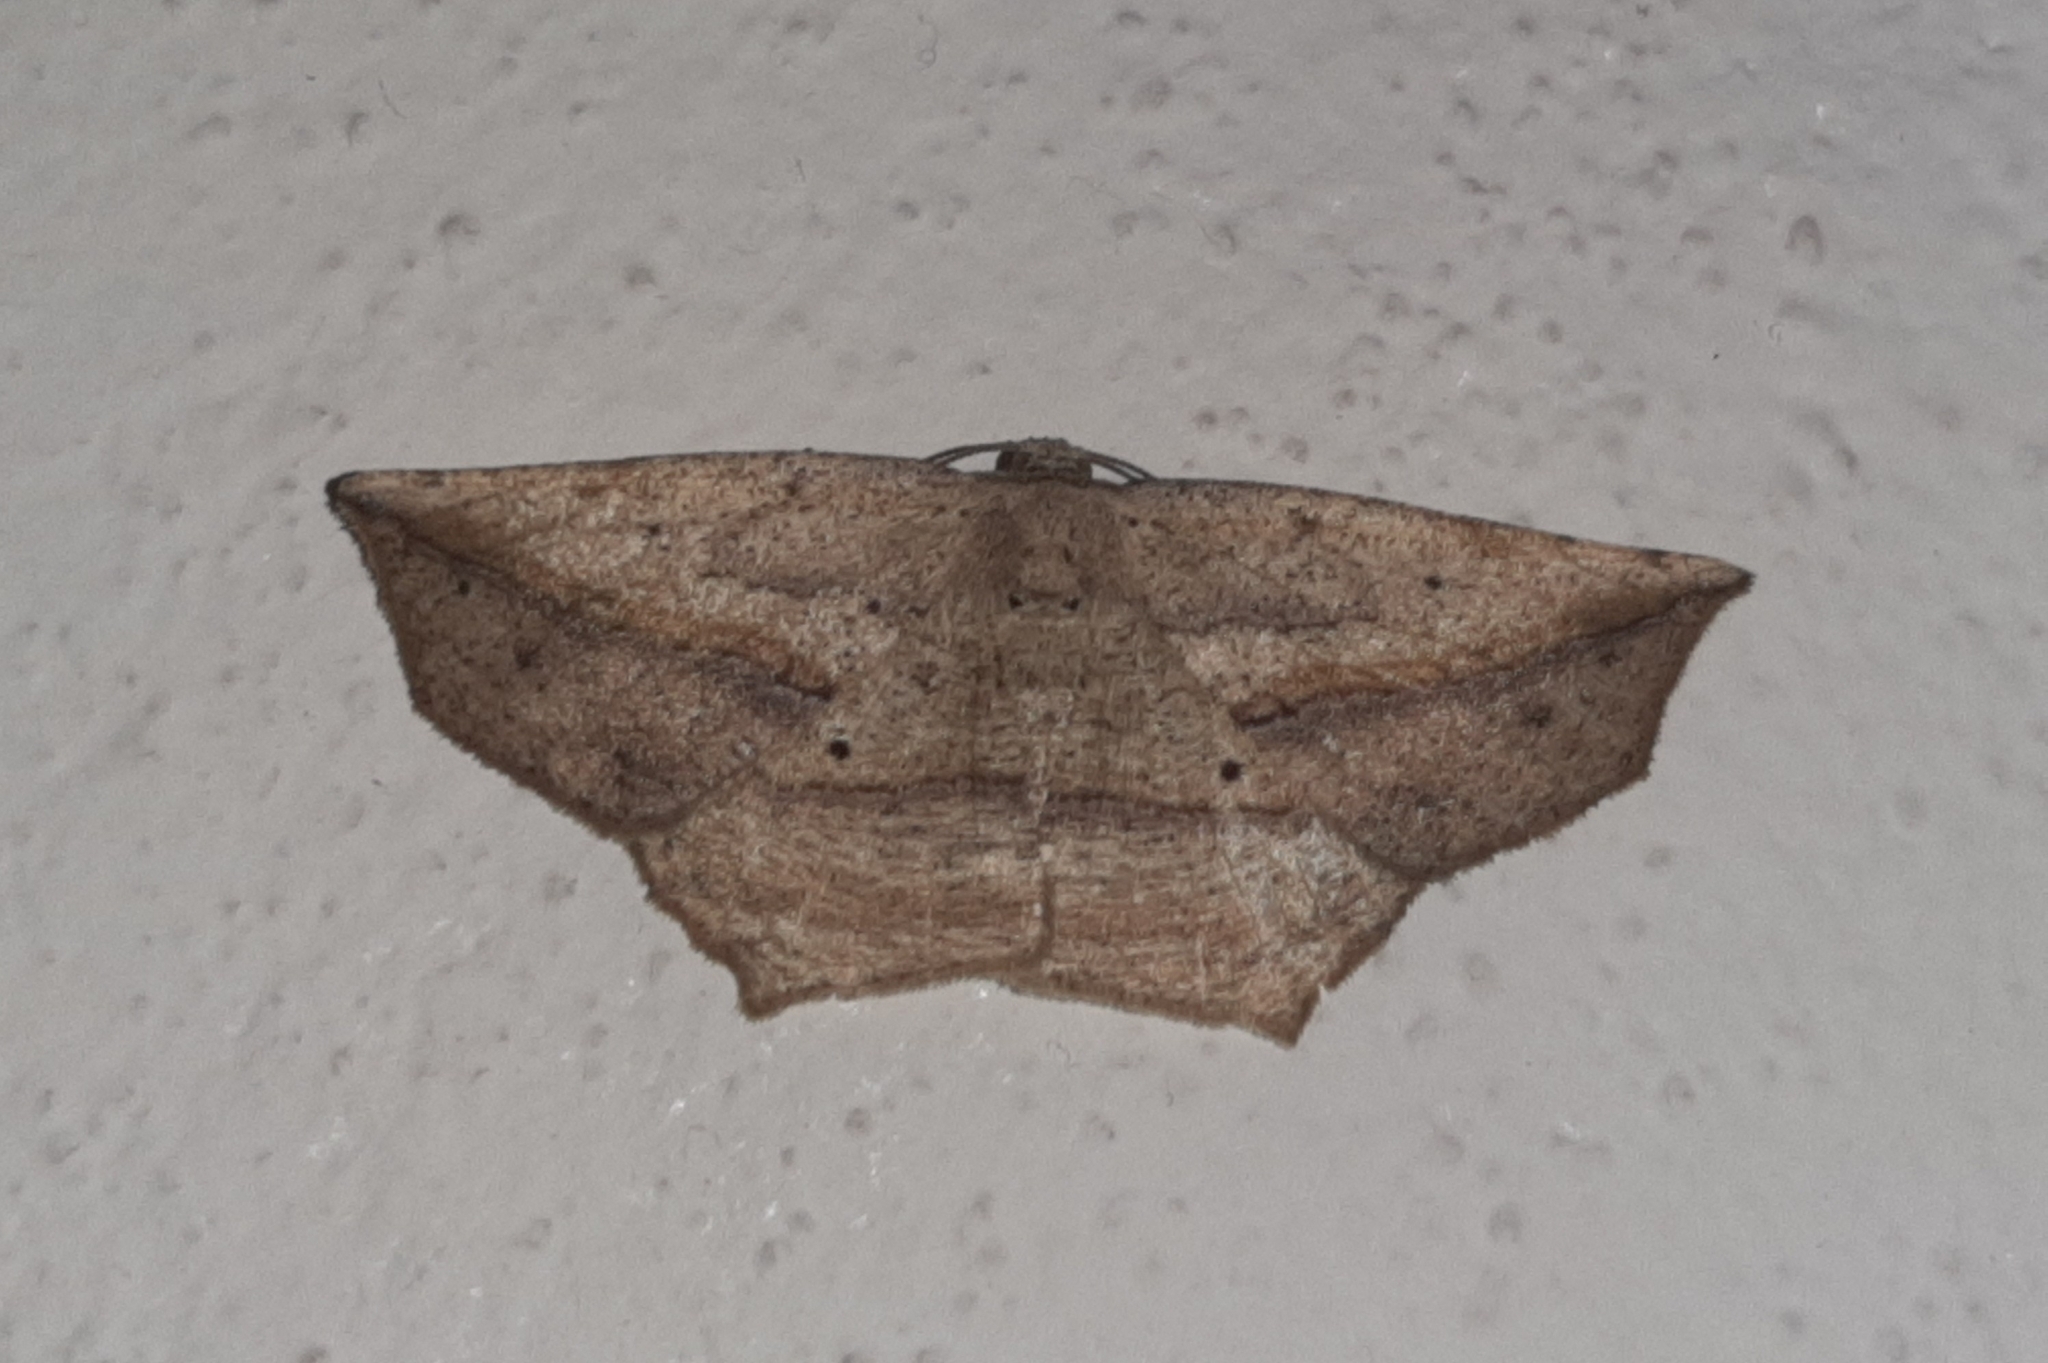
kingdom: Animalia
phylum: Arthropoda
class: Insecta
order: Lepidoptera
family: Geometridae
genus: Eusarca
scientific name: Eusarca flexilis
